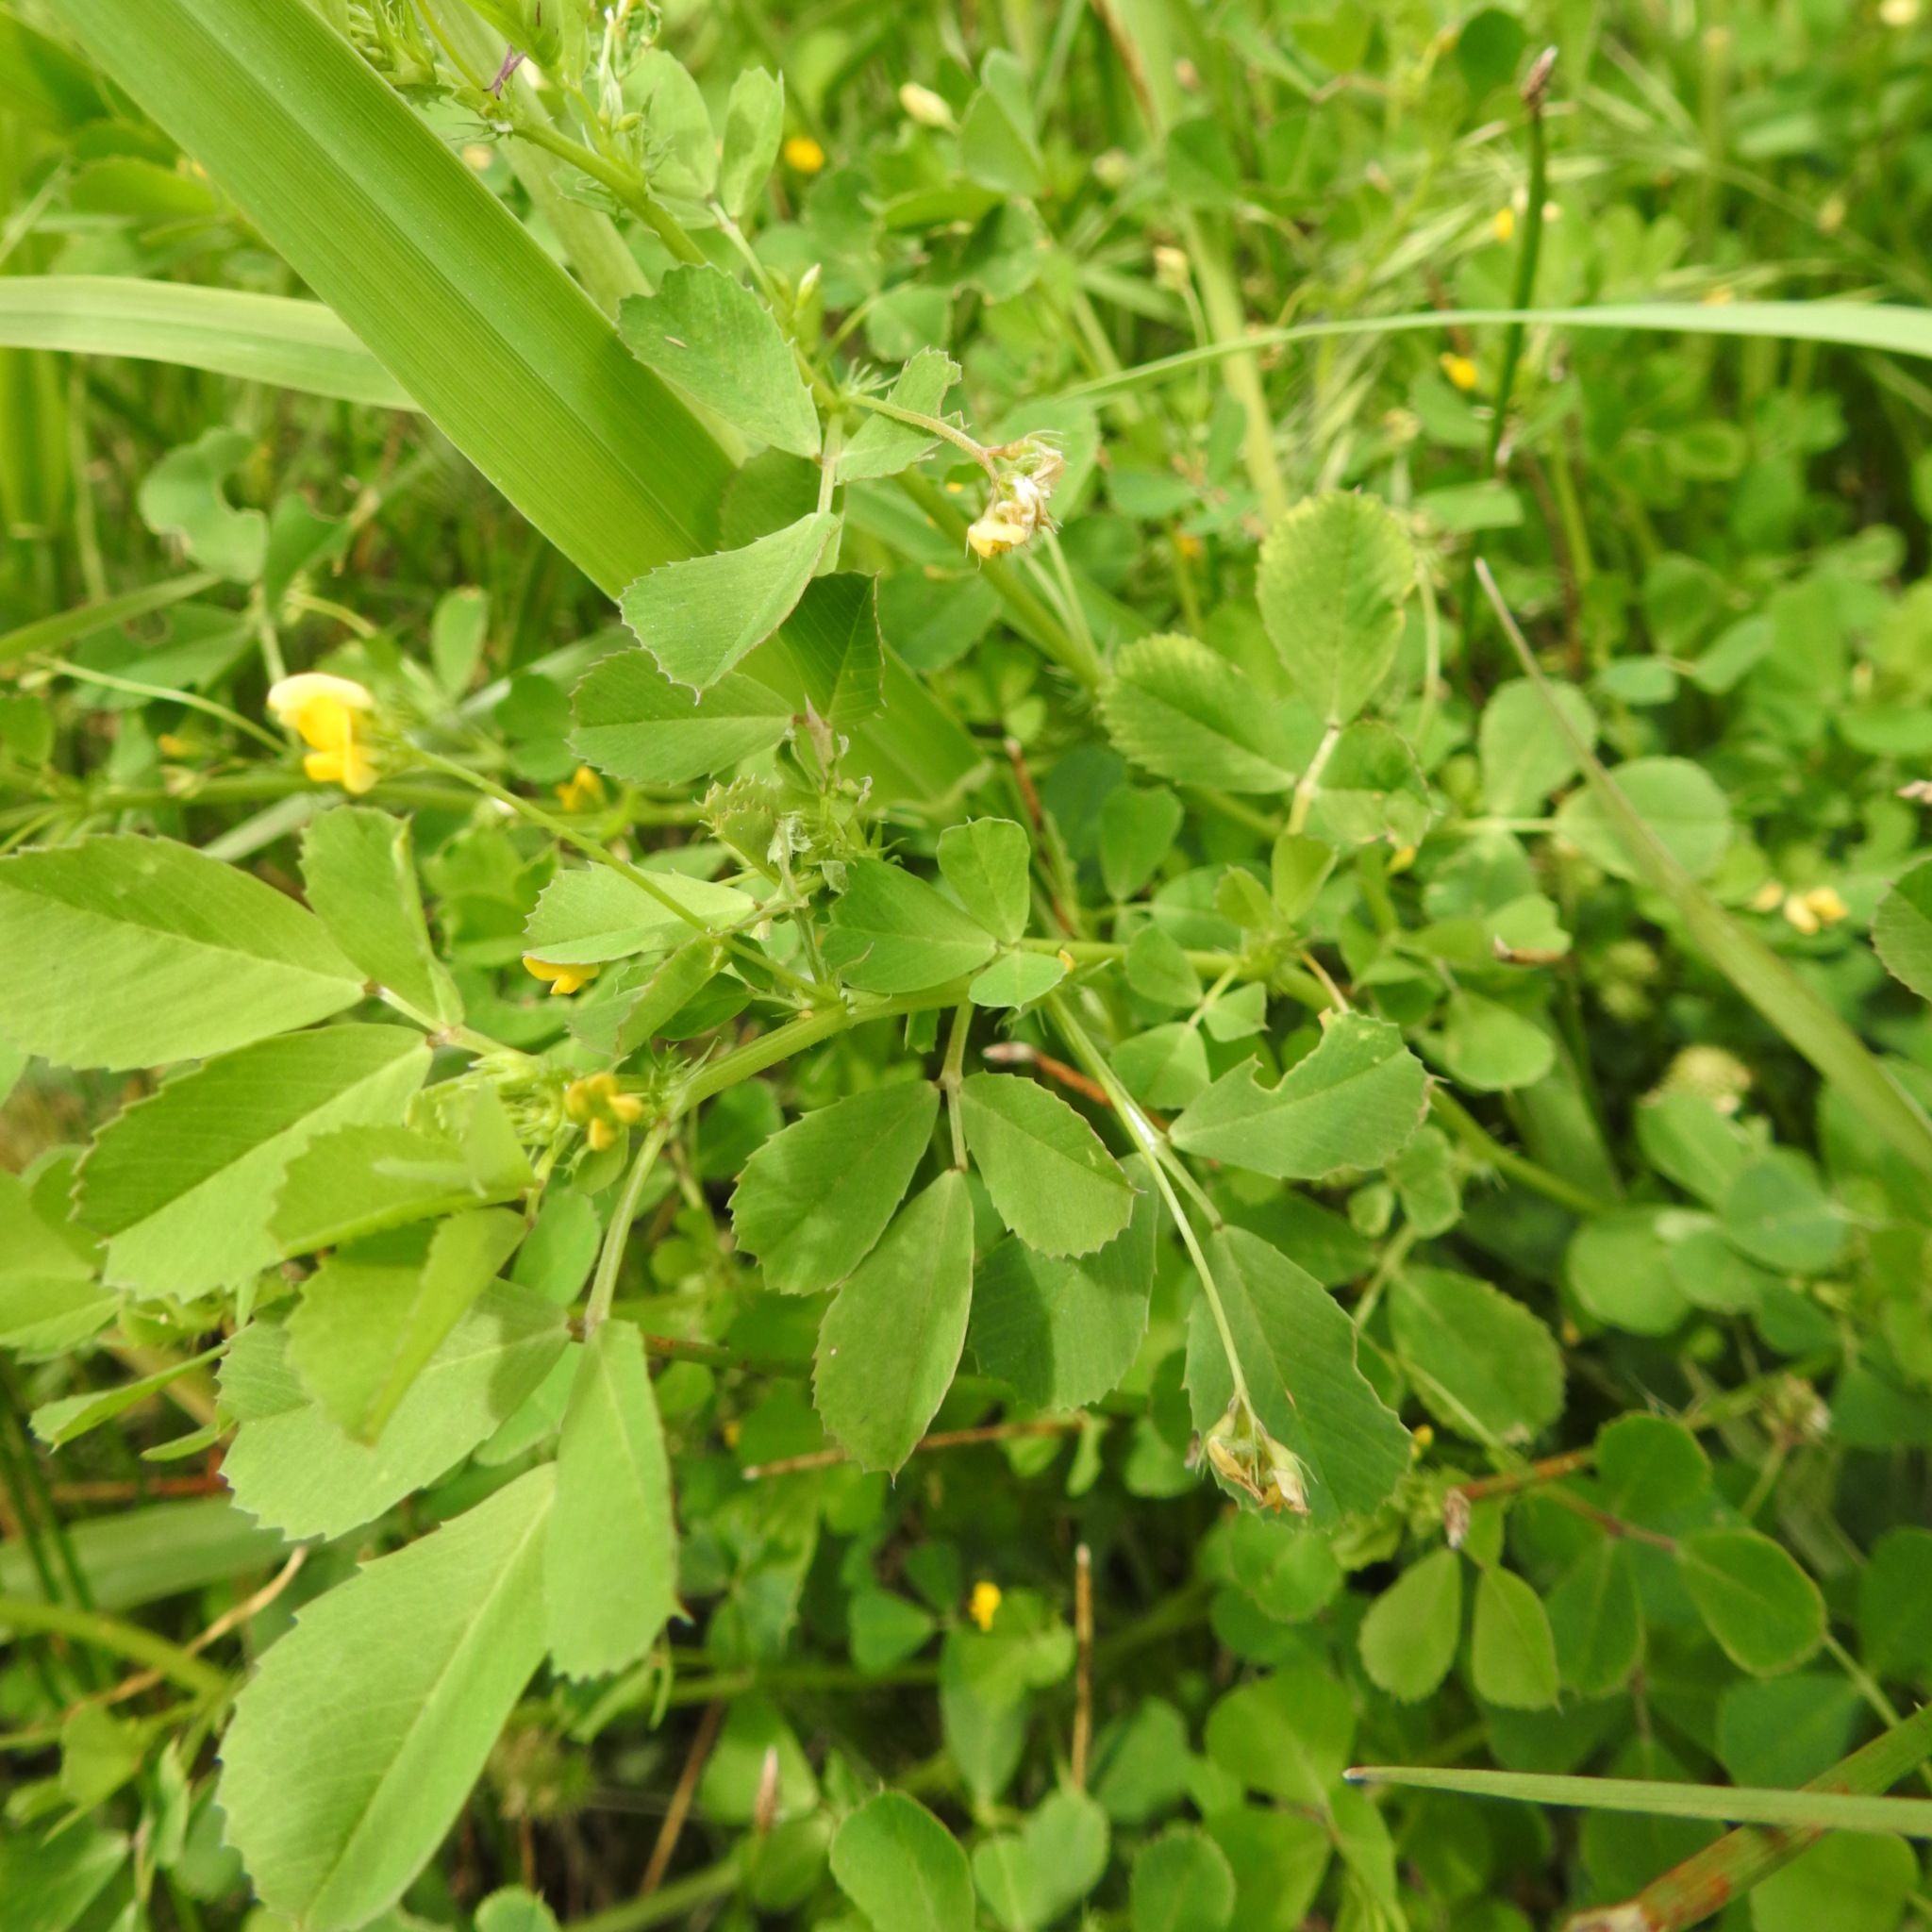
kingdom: Plantae
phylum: Tracheophyta
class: Magnoliopsida
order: Fabales
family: Fabaceae
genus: Medicago
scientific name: Medicago polymorpha
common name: Burclover
